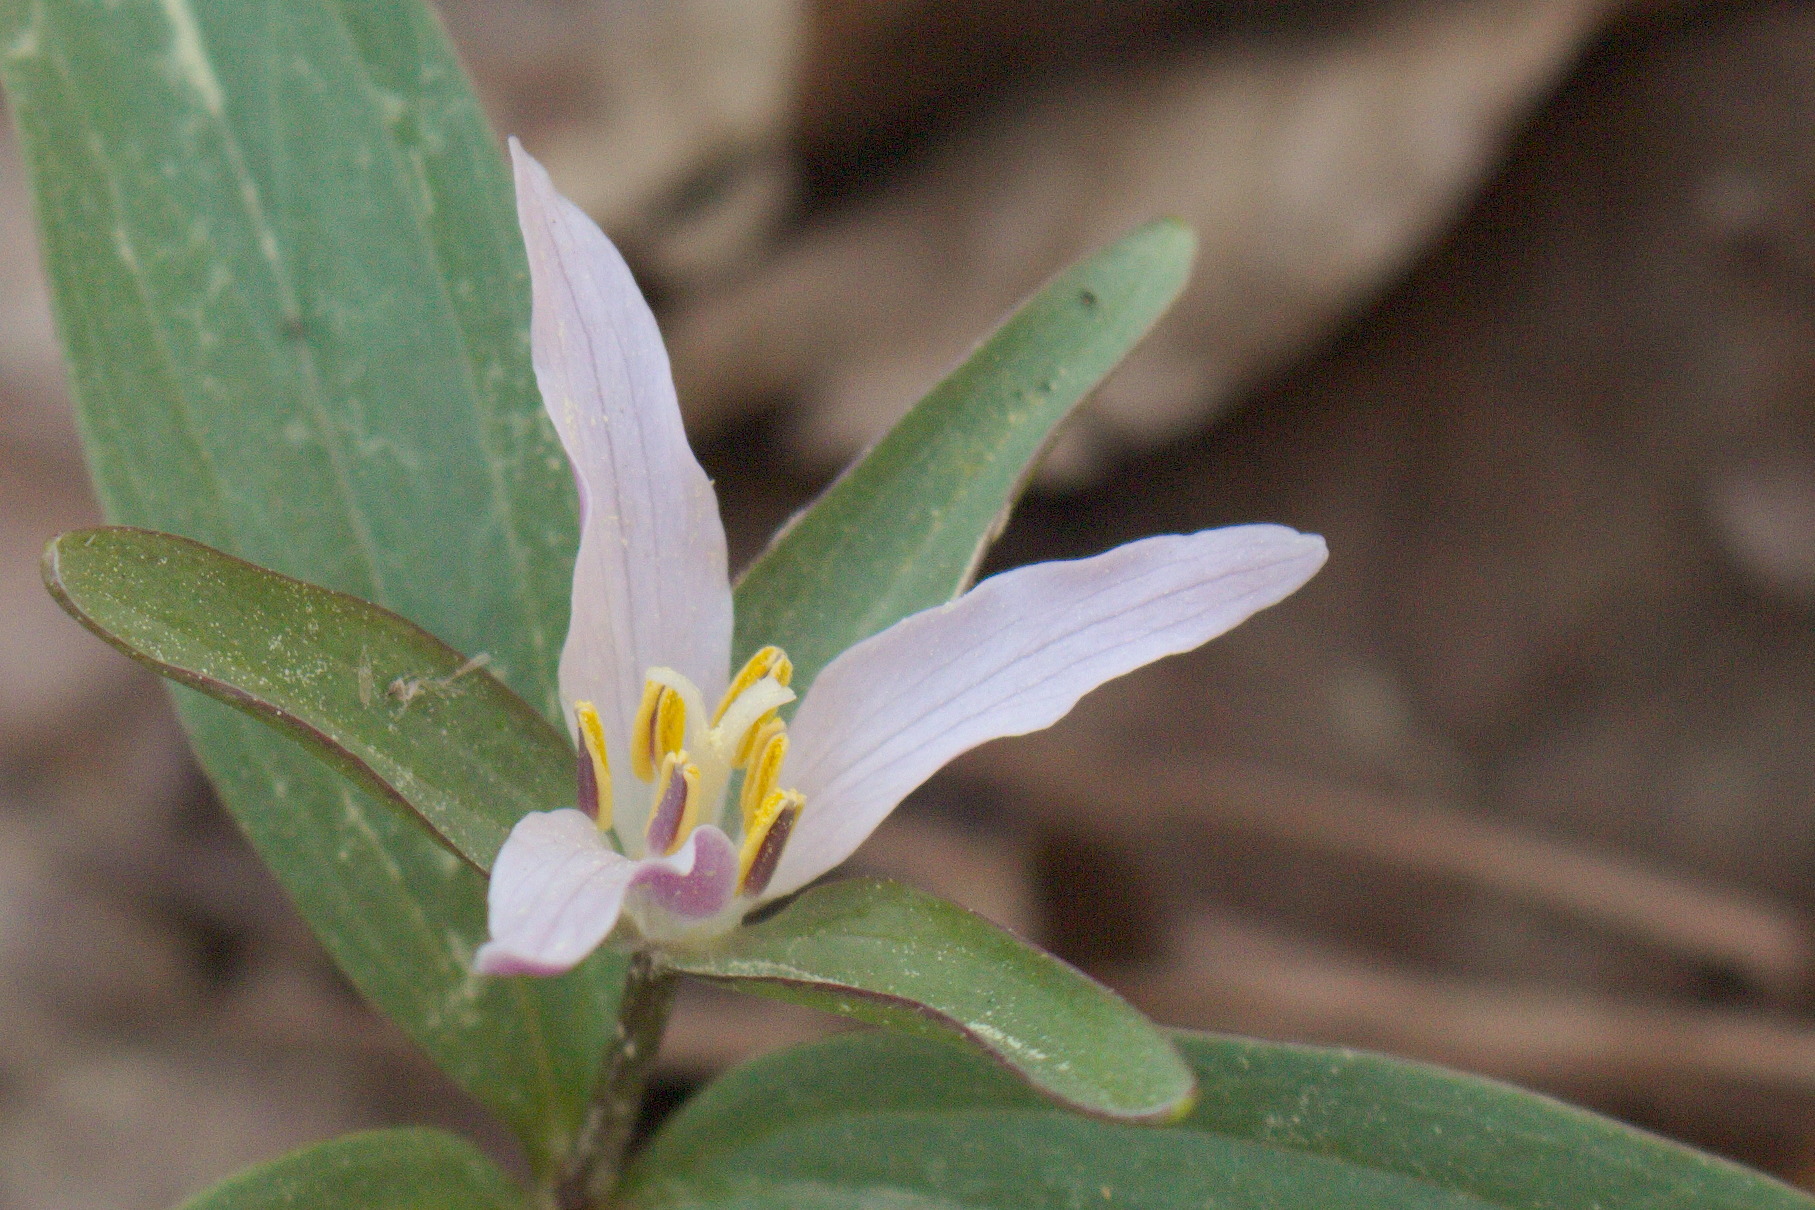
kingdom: Plantae
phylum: Tracheophyta
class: Liliopsida
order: Liliales
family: Melanthiaceae
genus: Trillium
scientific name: Trillium pusillum
